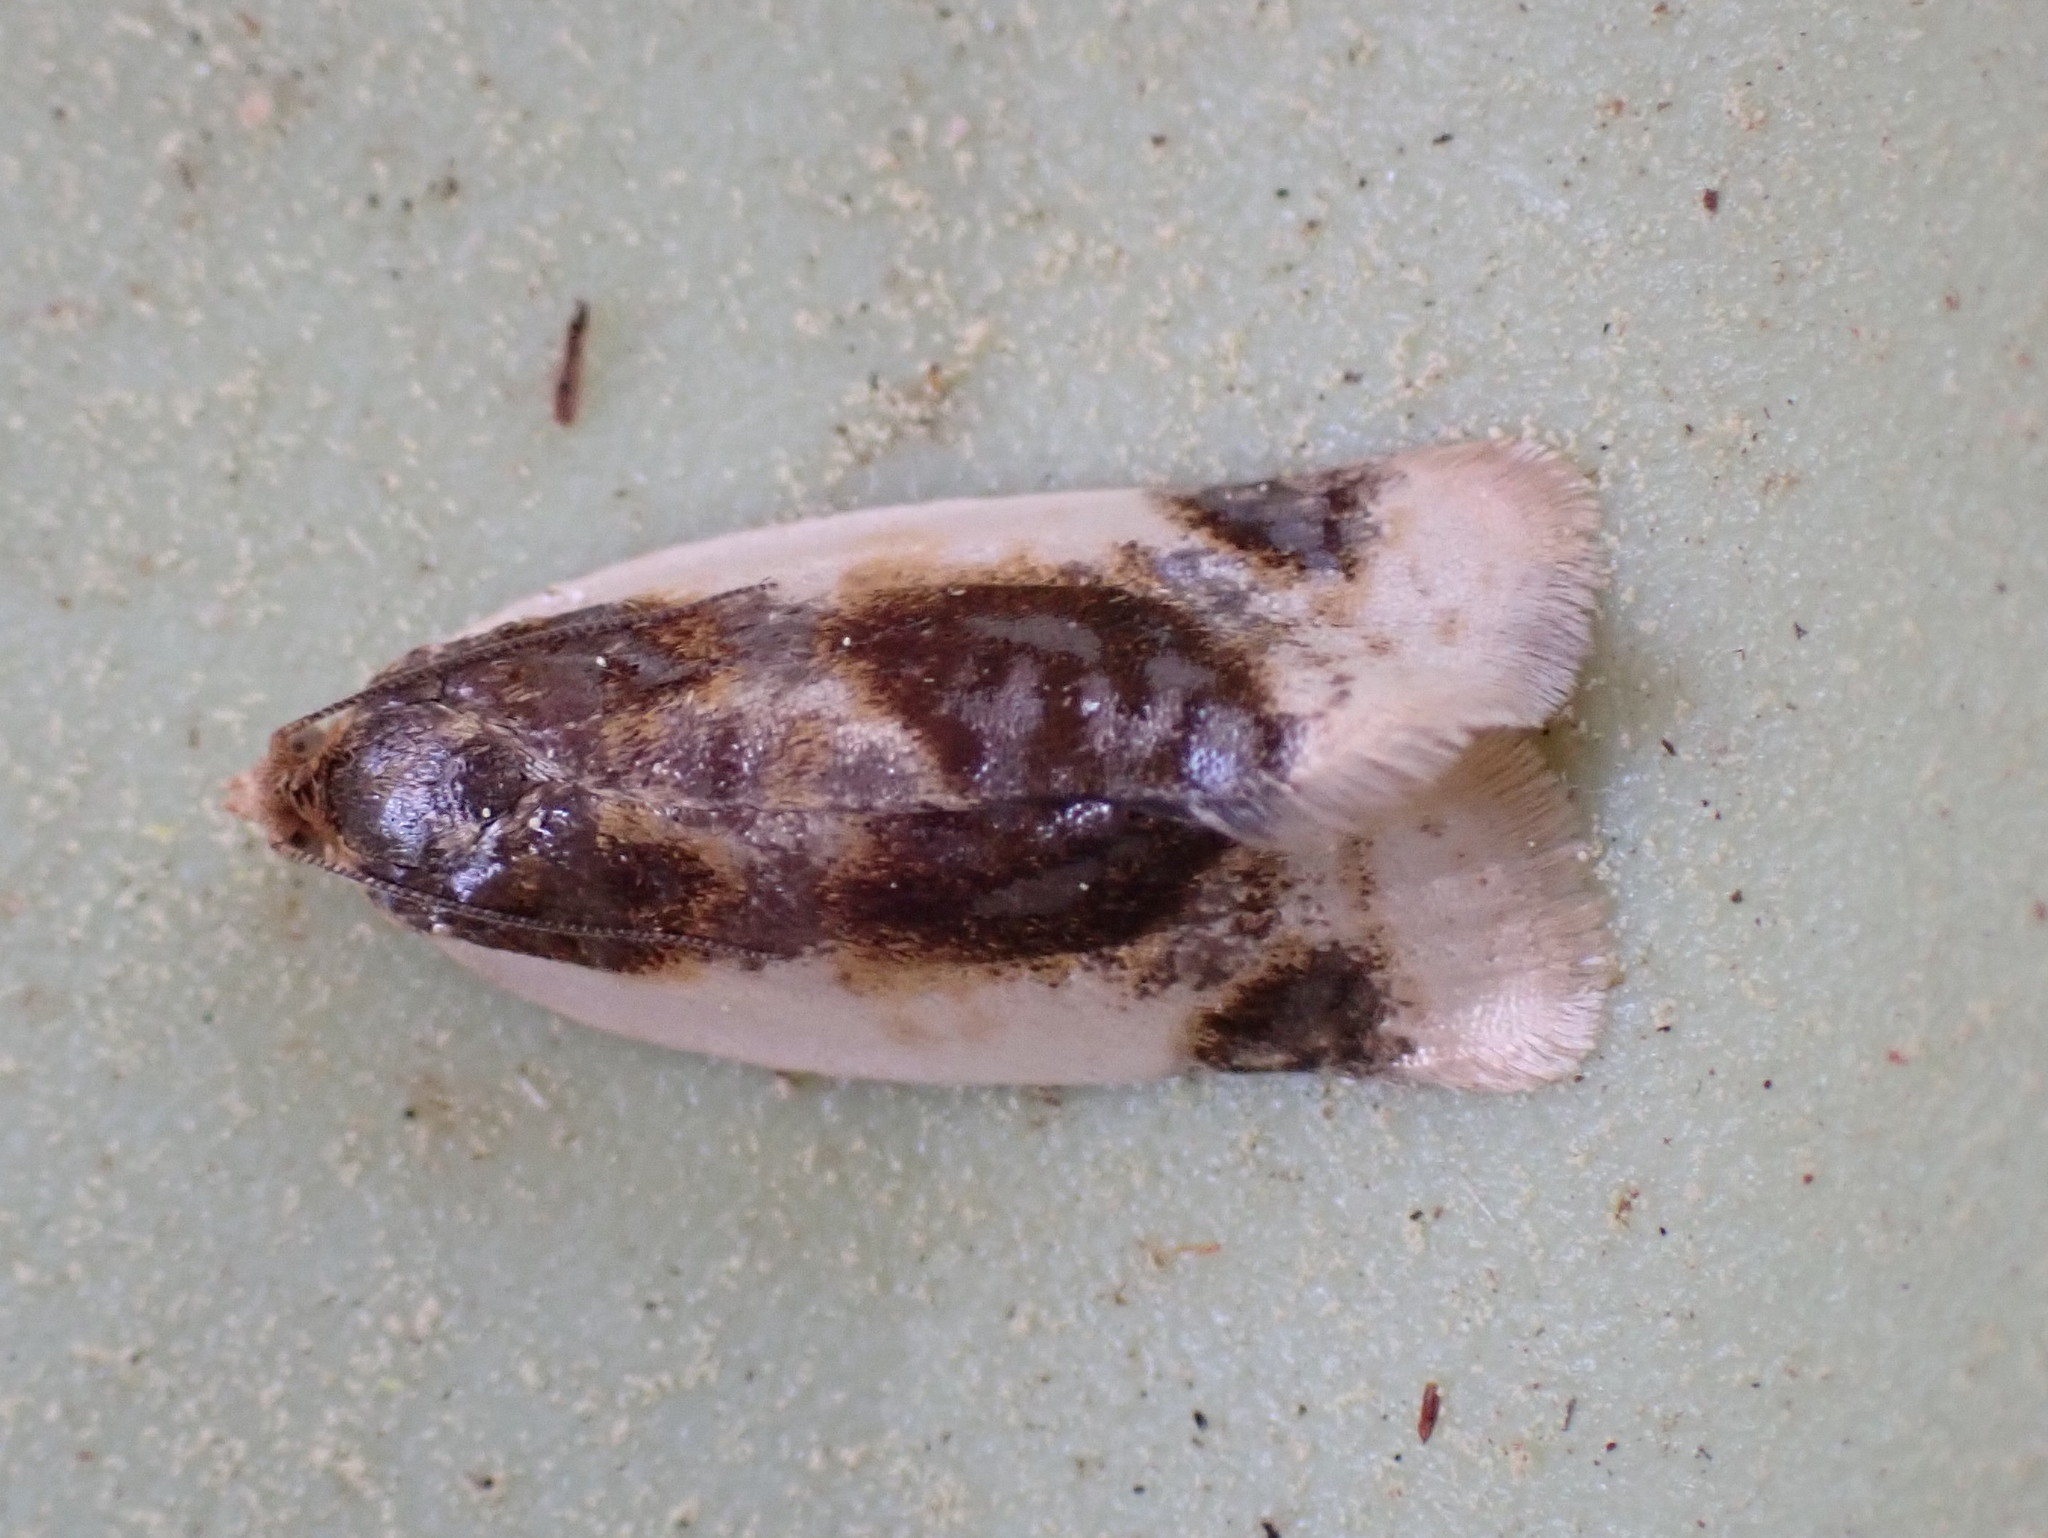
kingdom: Animalia
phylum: Arthropoda
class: Insecta
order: Lepidoptera
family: Tortricidae
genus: Clepsis
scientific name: Clepsis melaleucanus
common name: American apple tortrix
